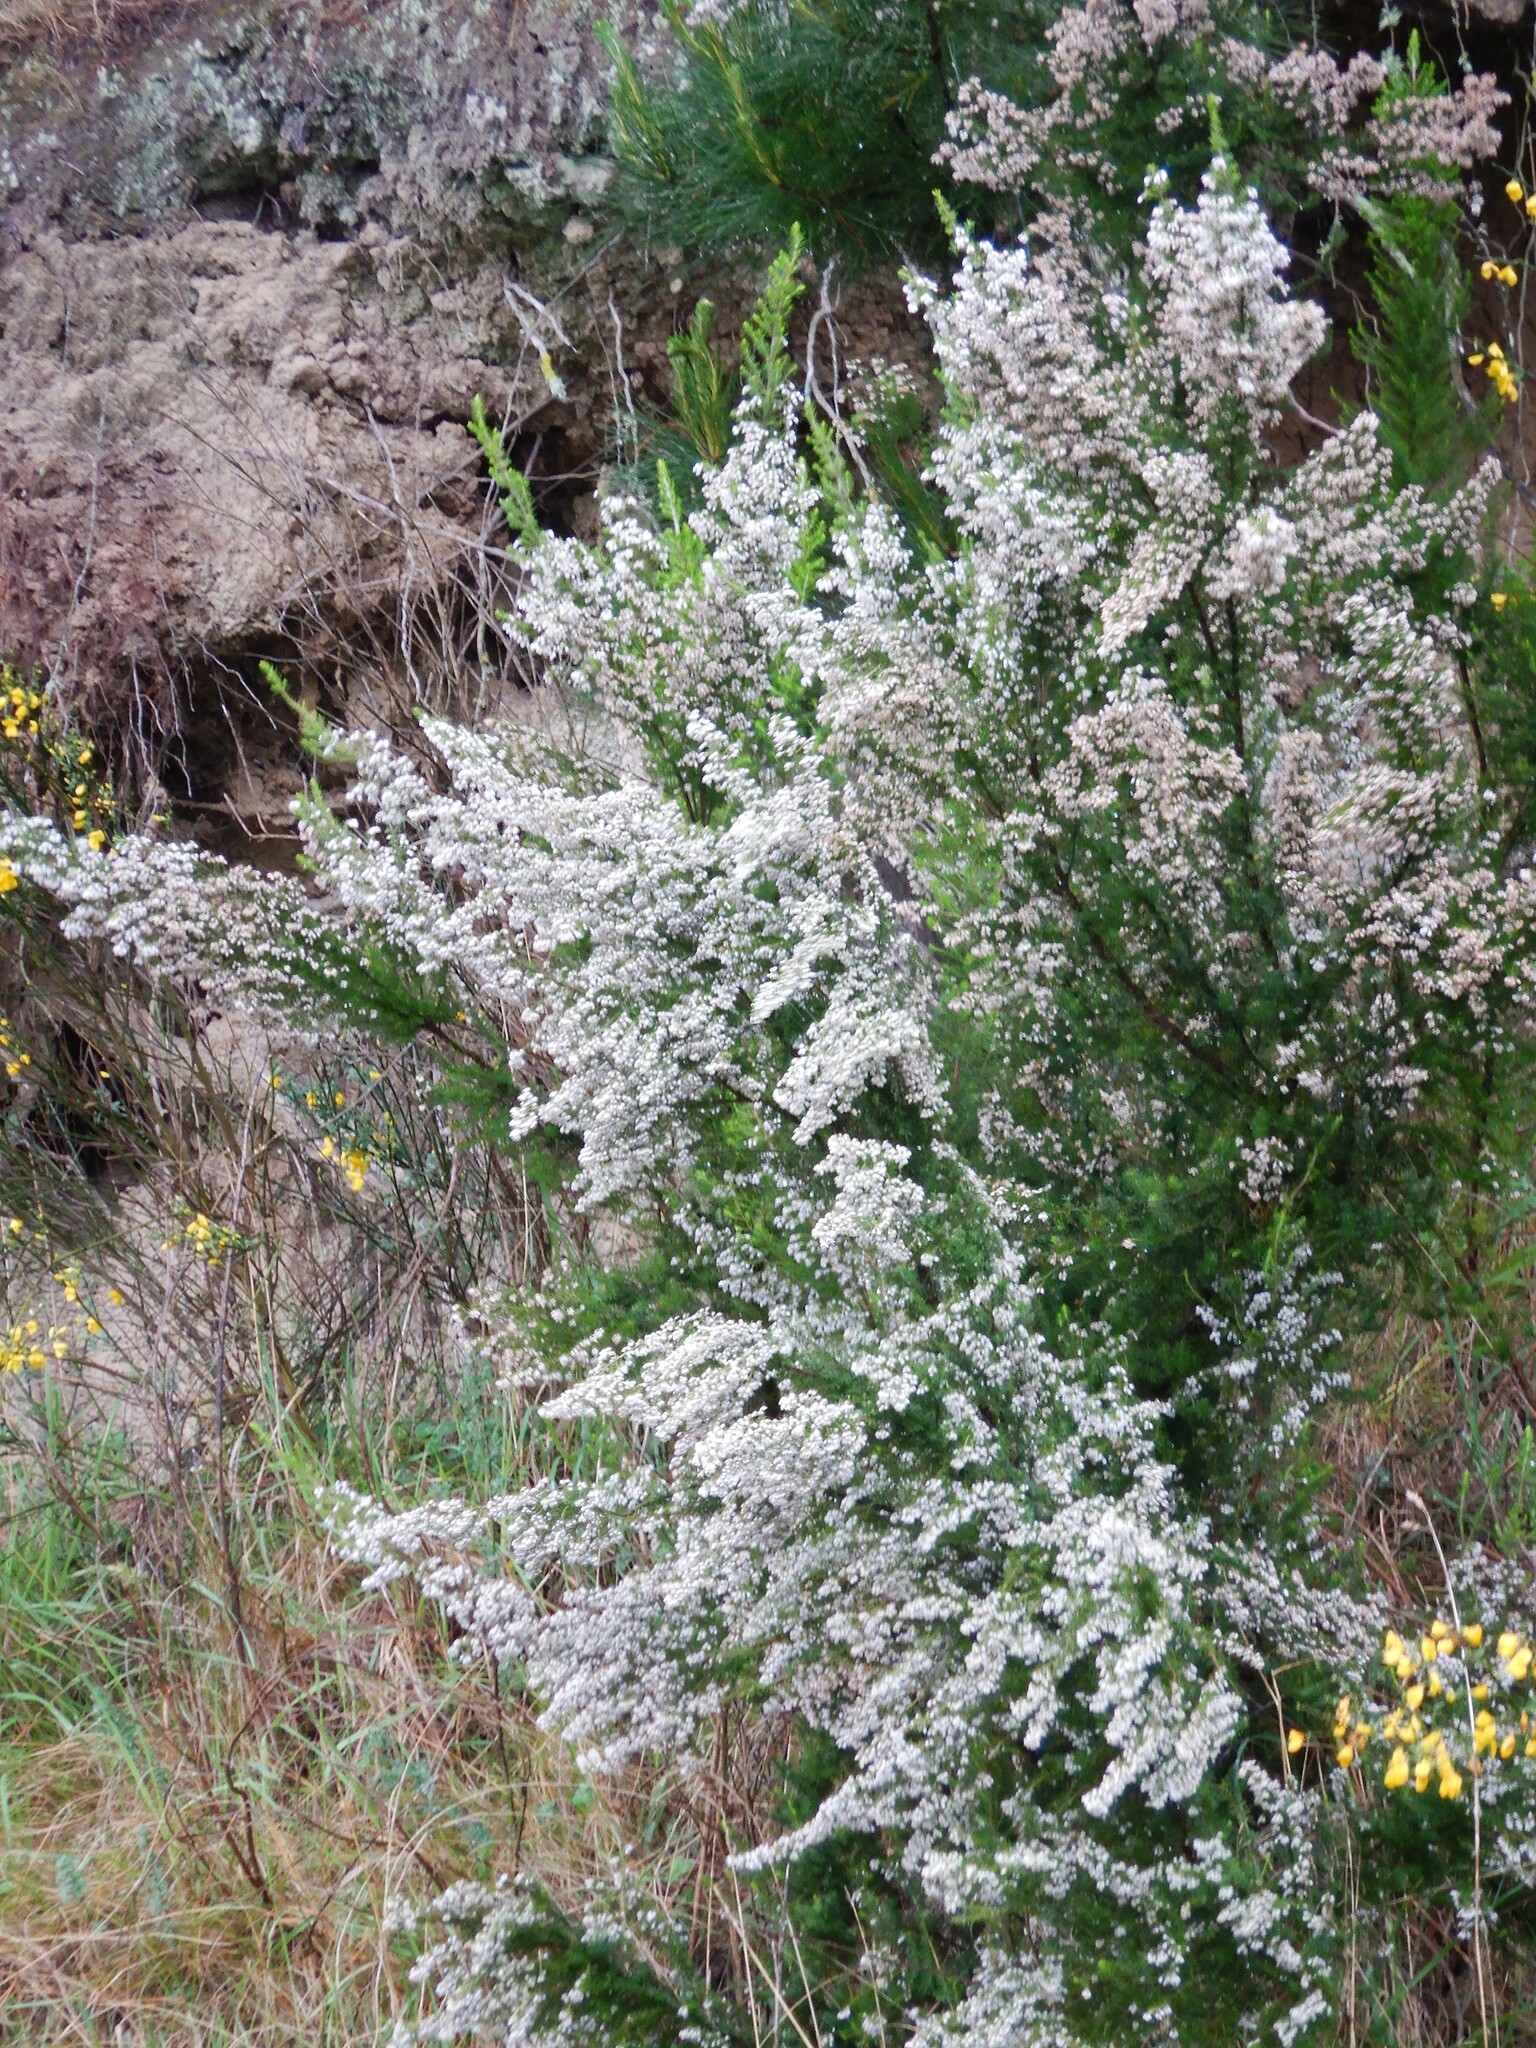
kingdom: Plantae
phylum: Tracheophyta
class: Magnoliopsida
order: Ericales
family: Ericaceae
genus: Erica
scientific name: Erica lusitanica
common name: Spanish heath
